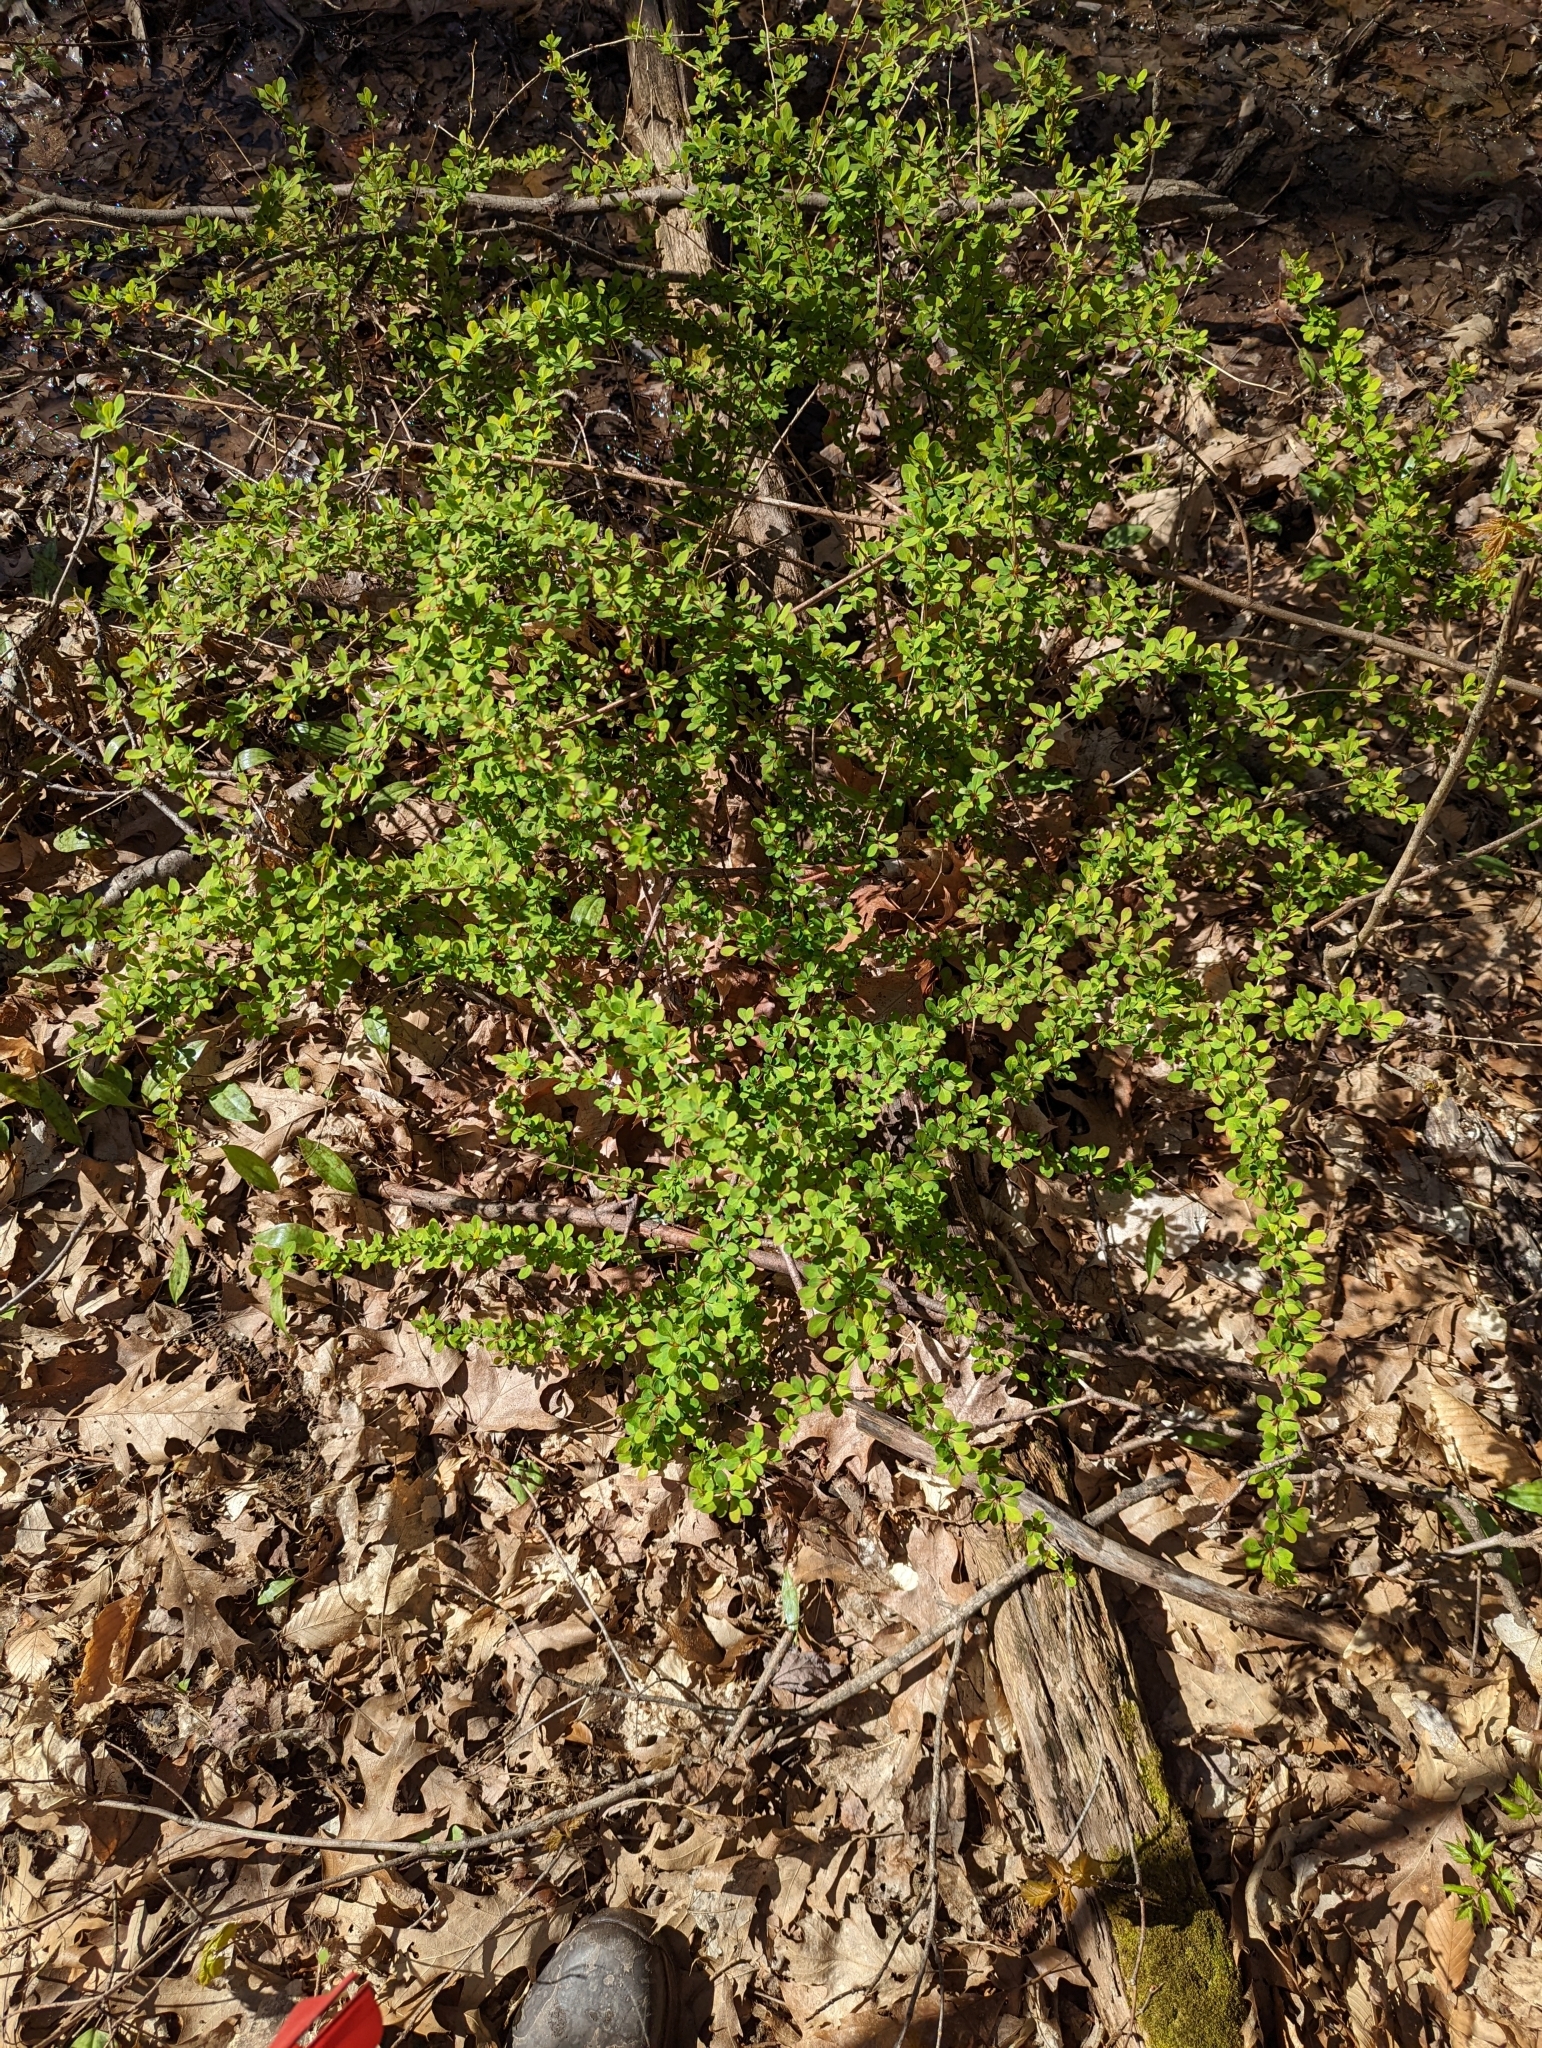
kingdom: Plantae
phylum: Tracheophyta
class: Magnoliopsida
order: Ranunculales
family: Berberidaceae
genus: Berberis
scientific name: Berberis thunbergii
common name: Japanese barberry
